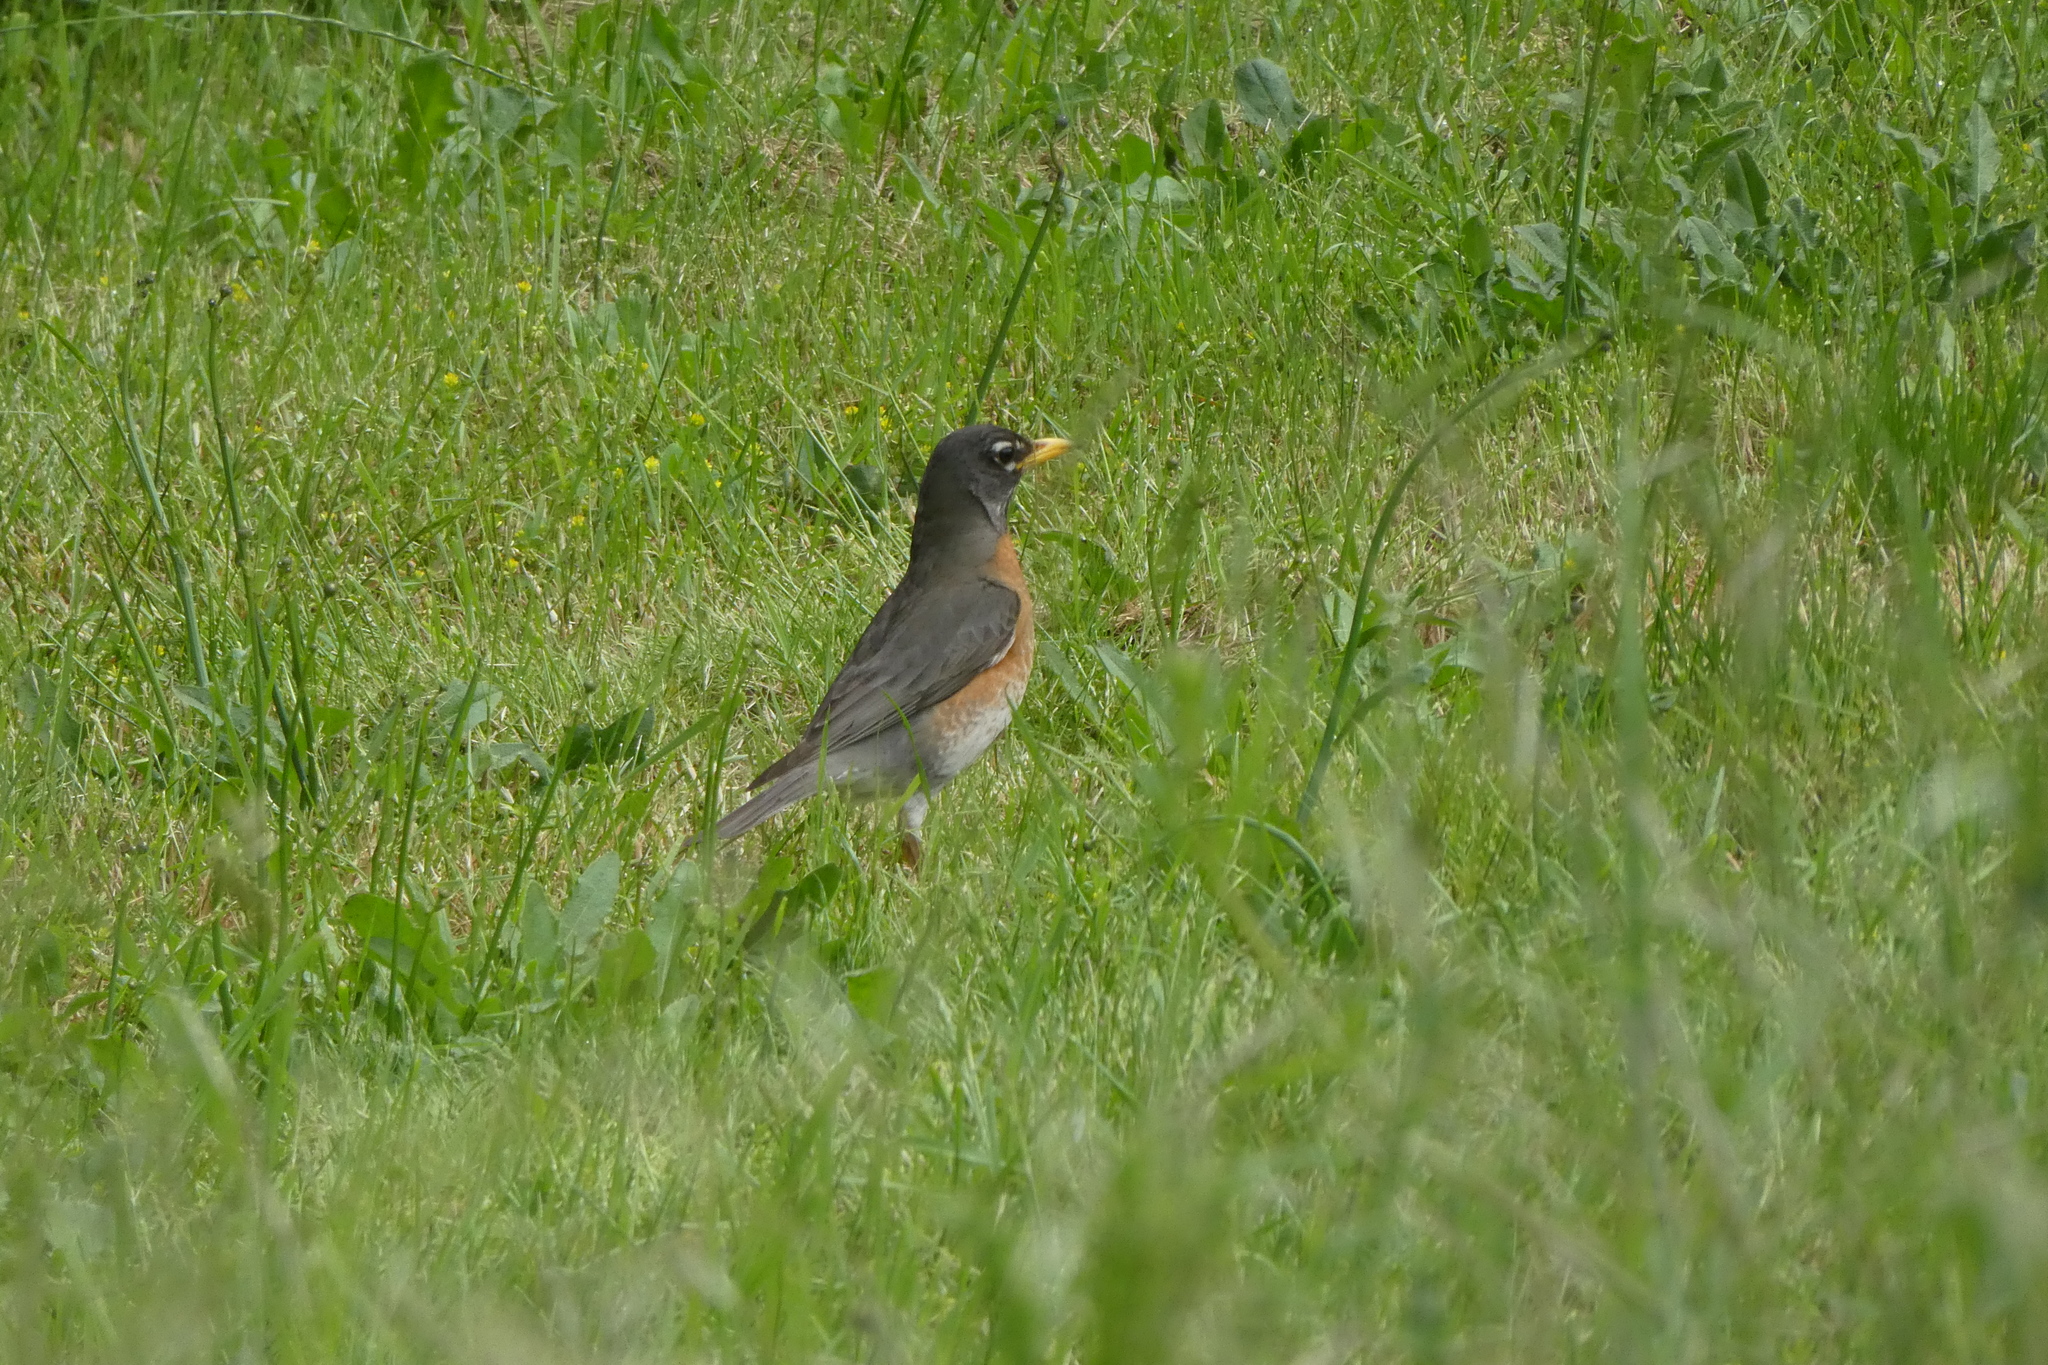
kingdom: Animalia
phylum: Chordata
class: Aves
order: Passeriformes
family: Turdidae
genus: Turdus
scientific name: Turdus migratorius
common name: American robin
